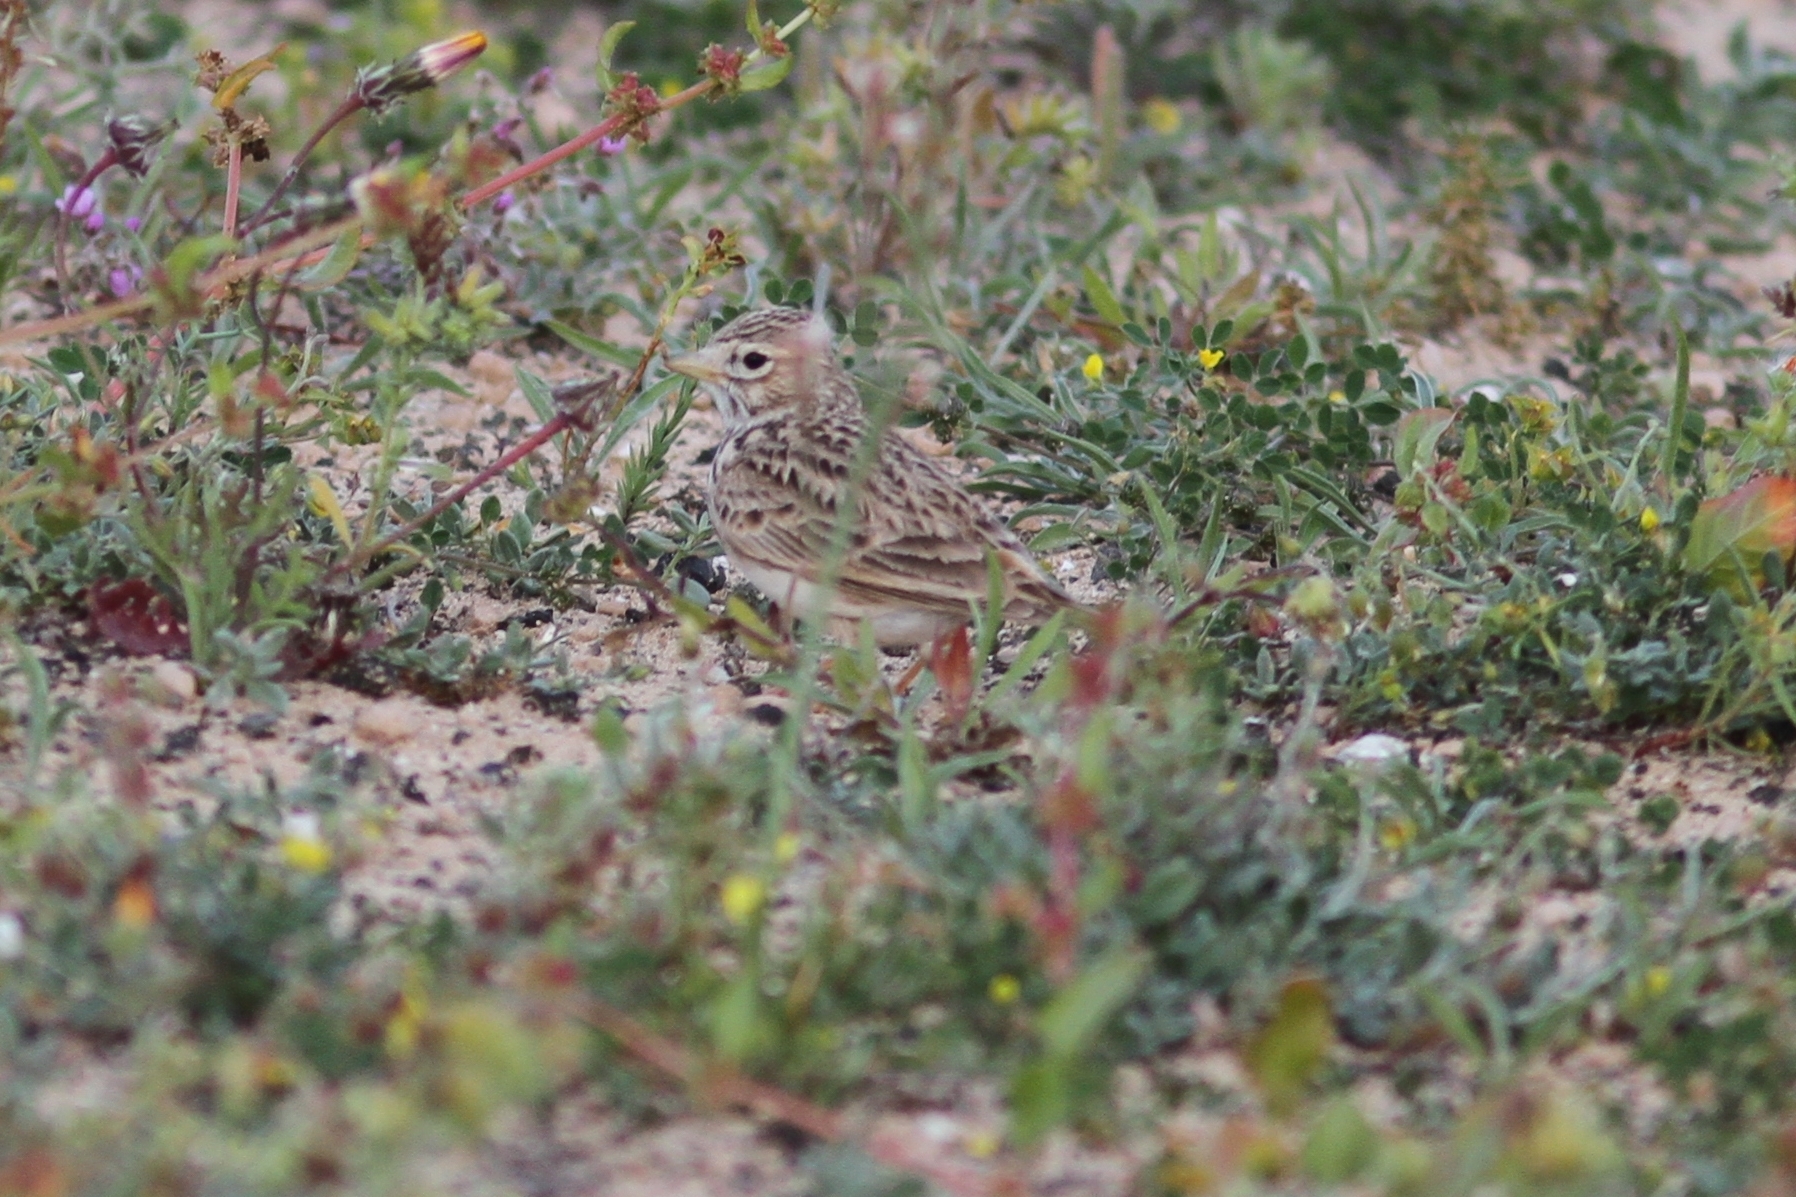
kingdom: Animalia
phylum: Chordata
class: Aves
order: Passeriformes
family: Alaudidae
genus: Calandrella
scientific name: Calandrella rufescens
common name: Lesser short-toed lark
